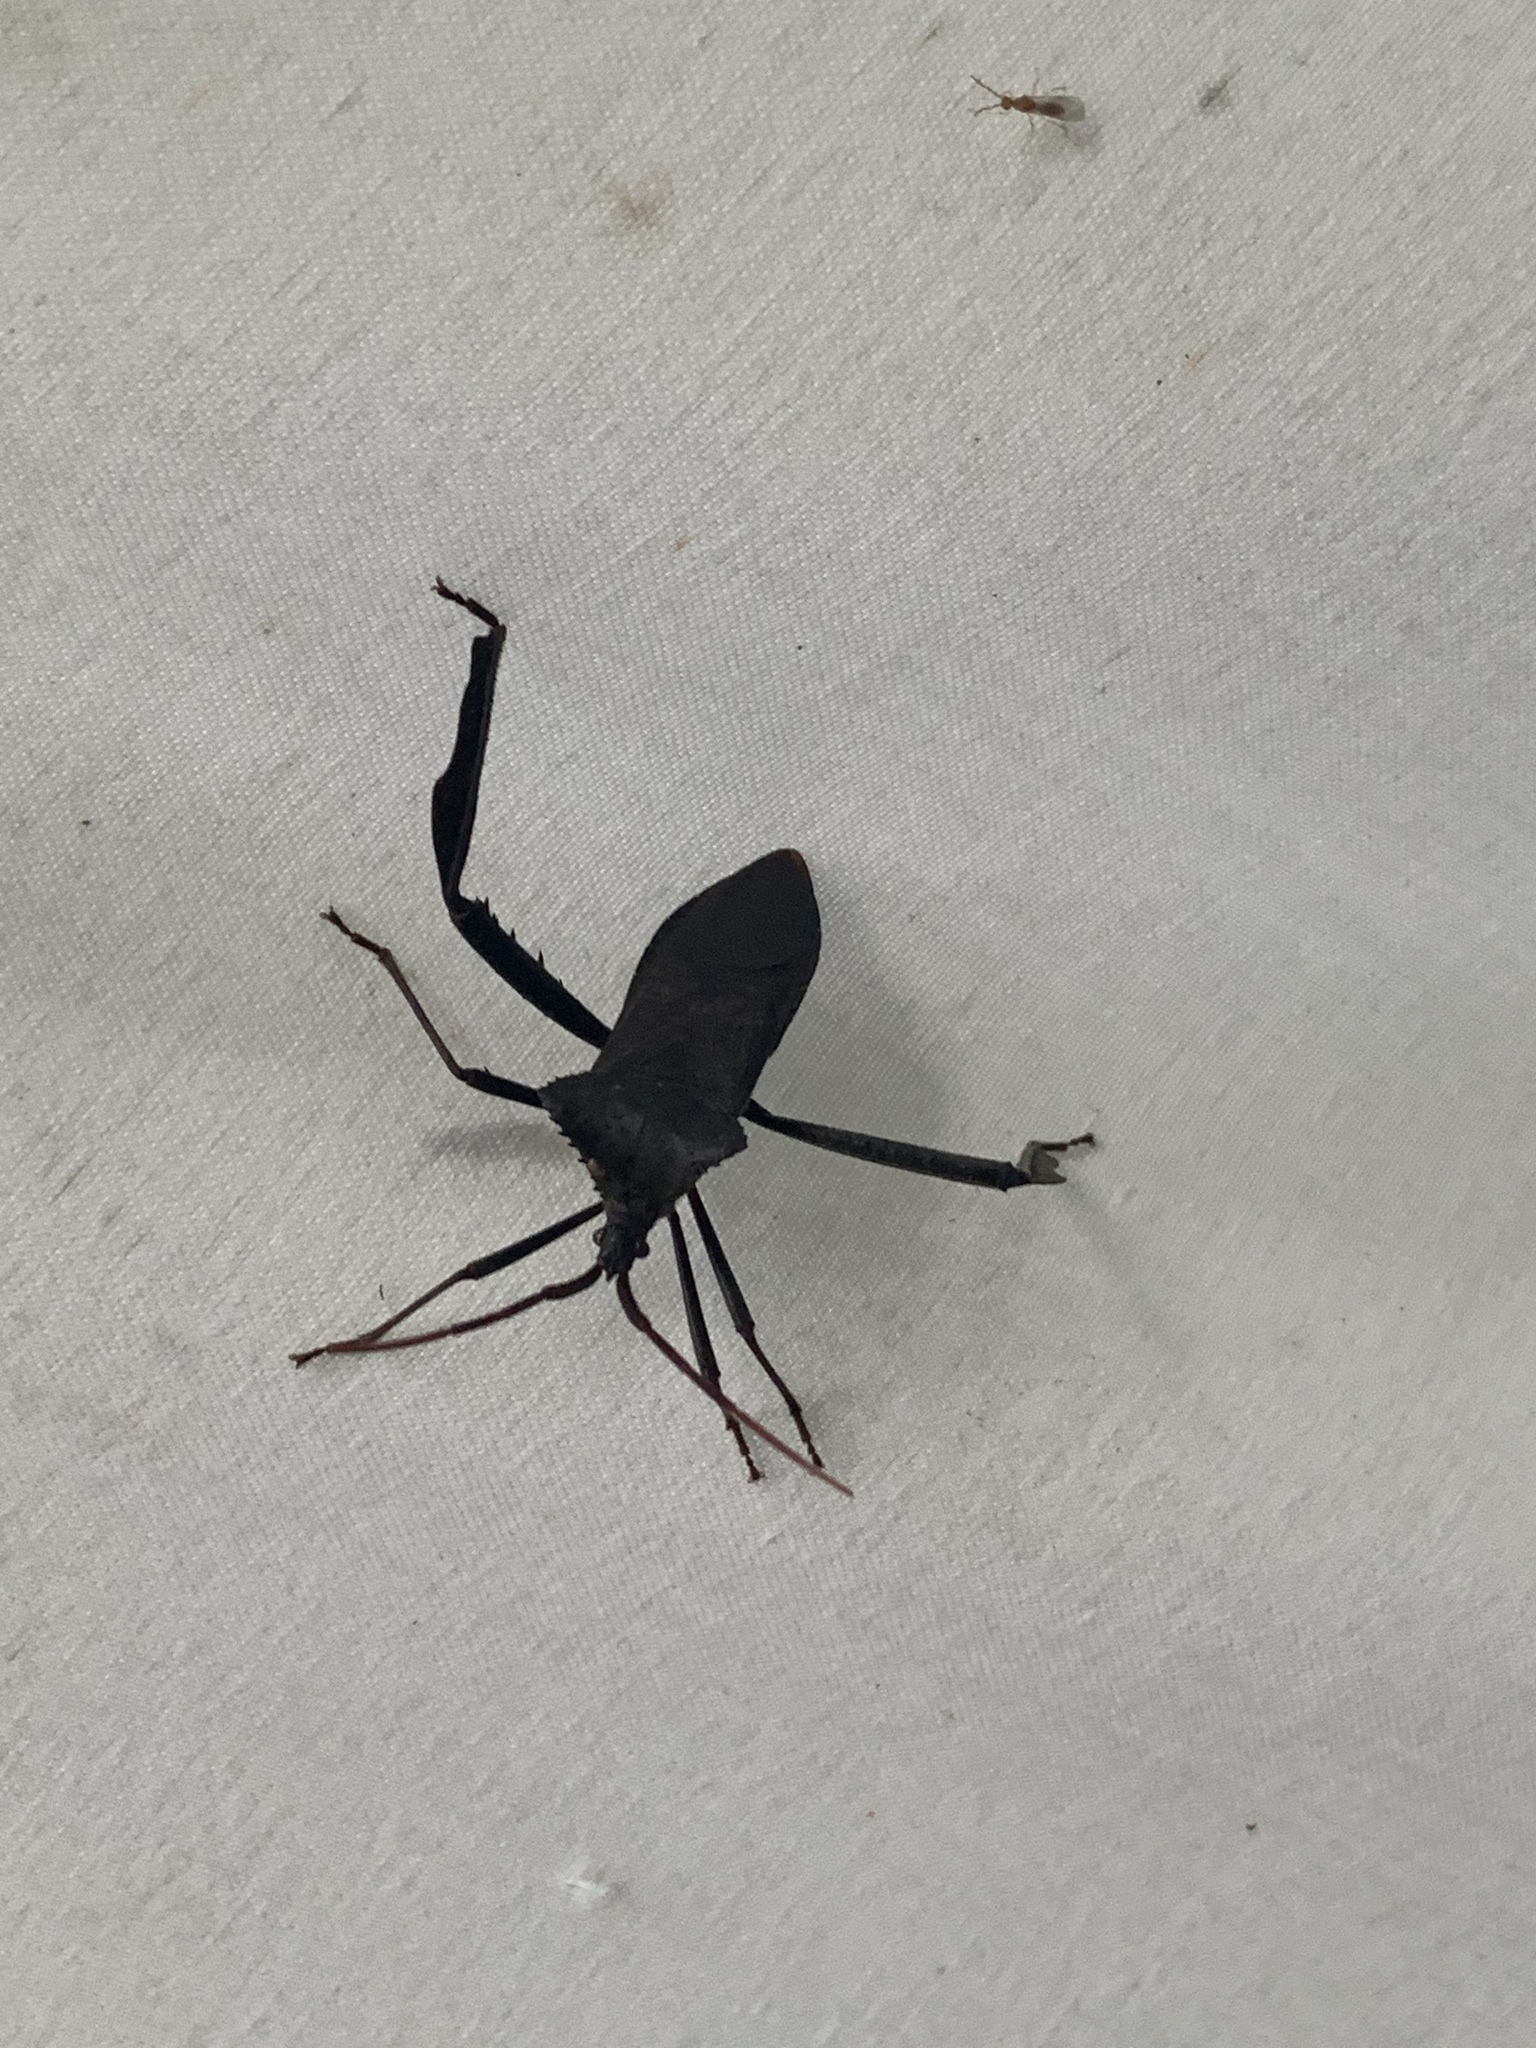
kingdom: Animalia
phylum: Arthropoda
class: Insecta
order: Hemiptera
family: Coreidae
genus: Acanthocephala
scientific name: Acanthocephala declivis
